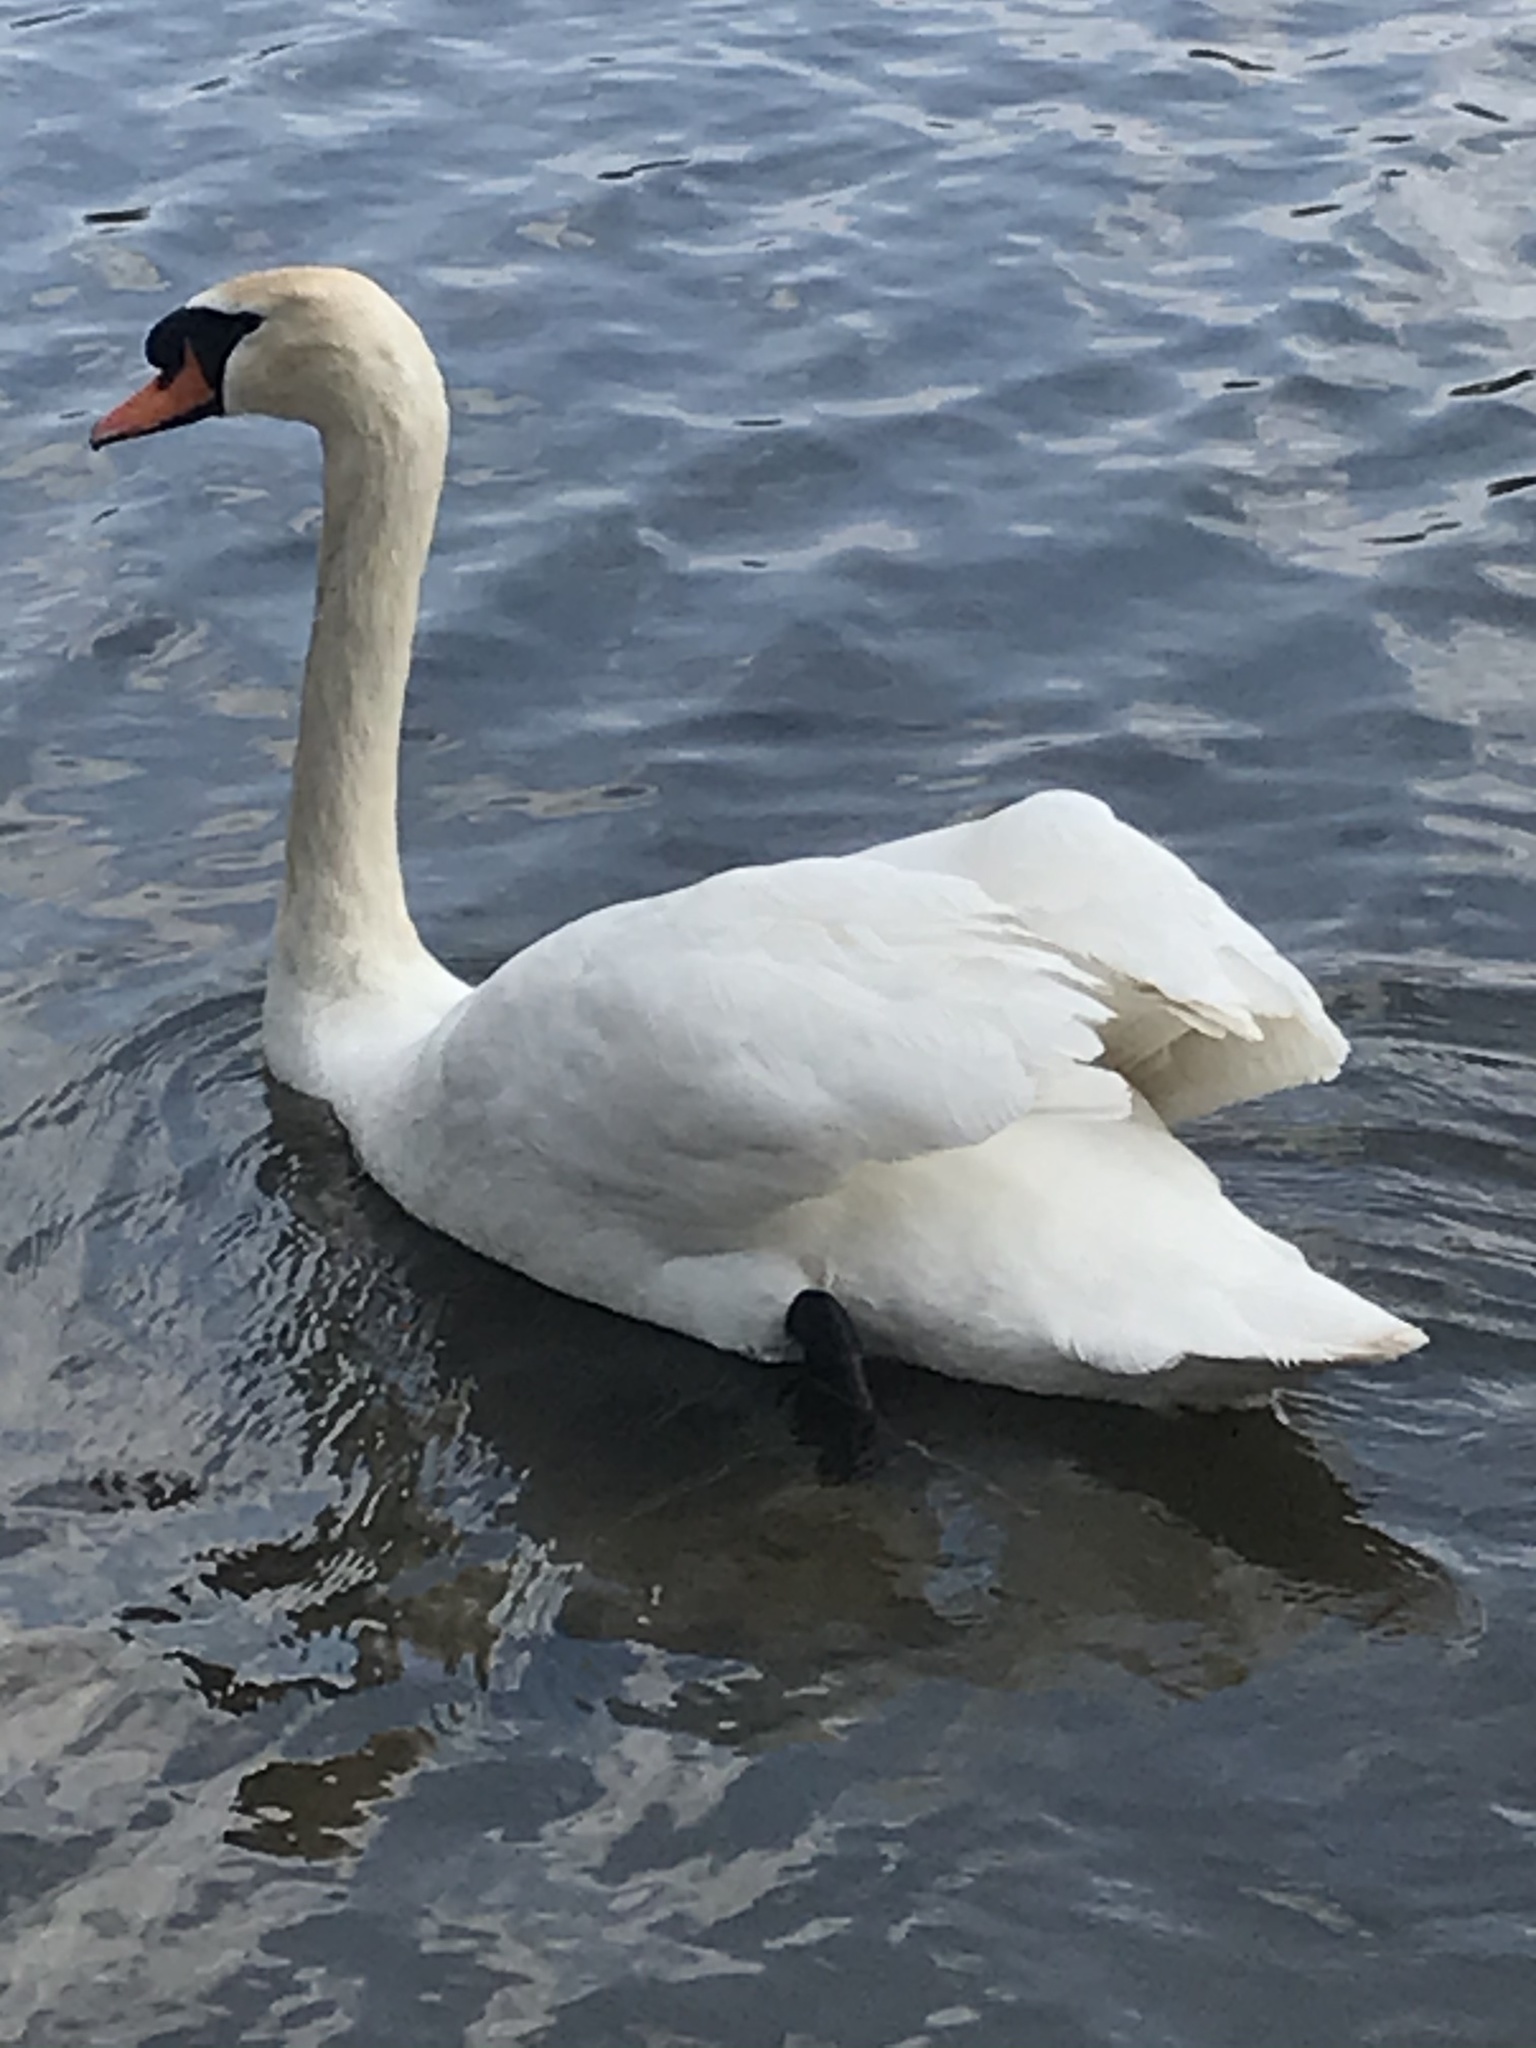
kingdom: Animalia
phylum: Chordata
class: Aves
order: Anseriformes
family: Anatidae
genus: Cygnus
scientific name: Cygnus olor
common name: Mute swan
